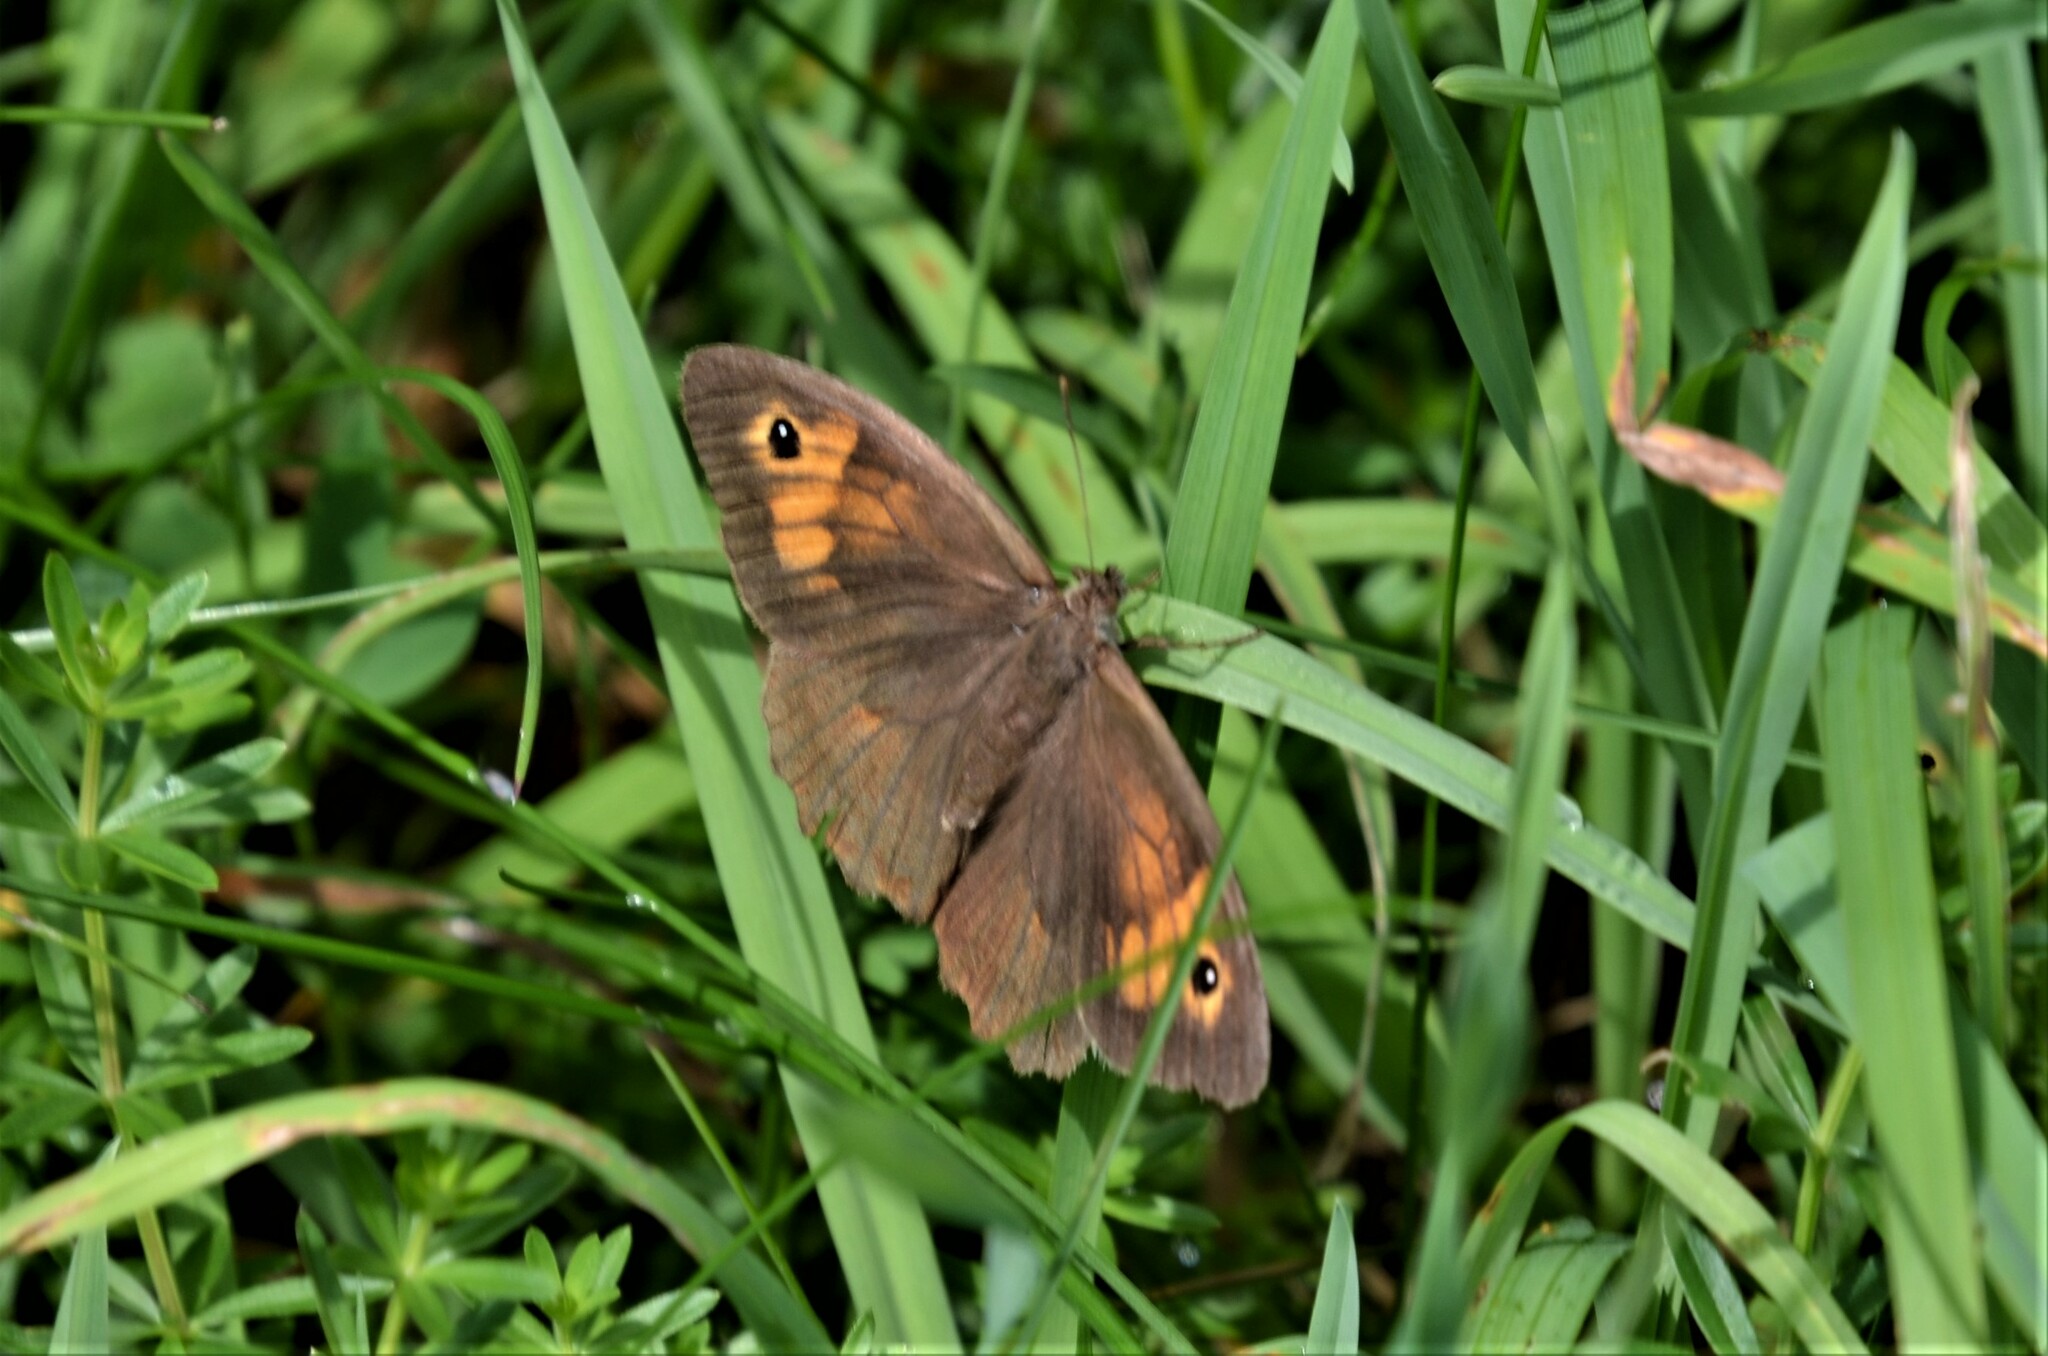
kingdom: Animalia
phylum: Arthropoda
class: Insecta
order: Lepidoptera
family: Nymphalidae
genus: Maniola
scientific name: Maniola jurtina
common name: Meadow brown
